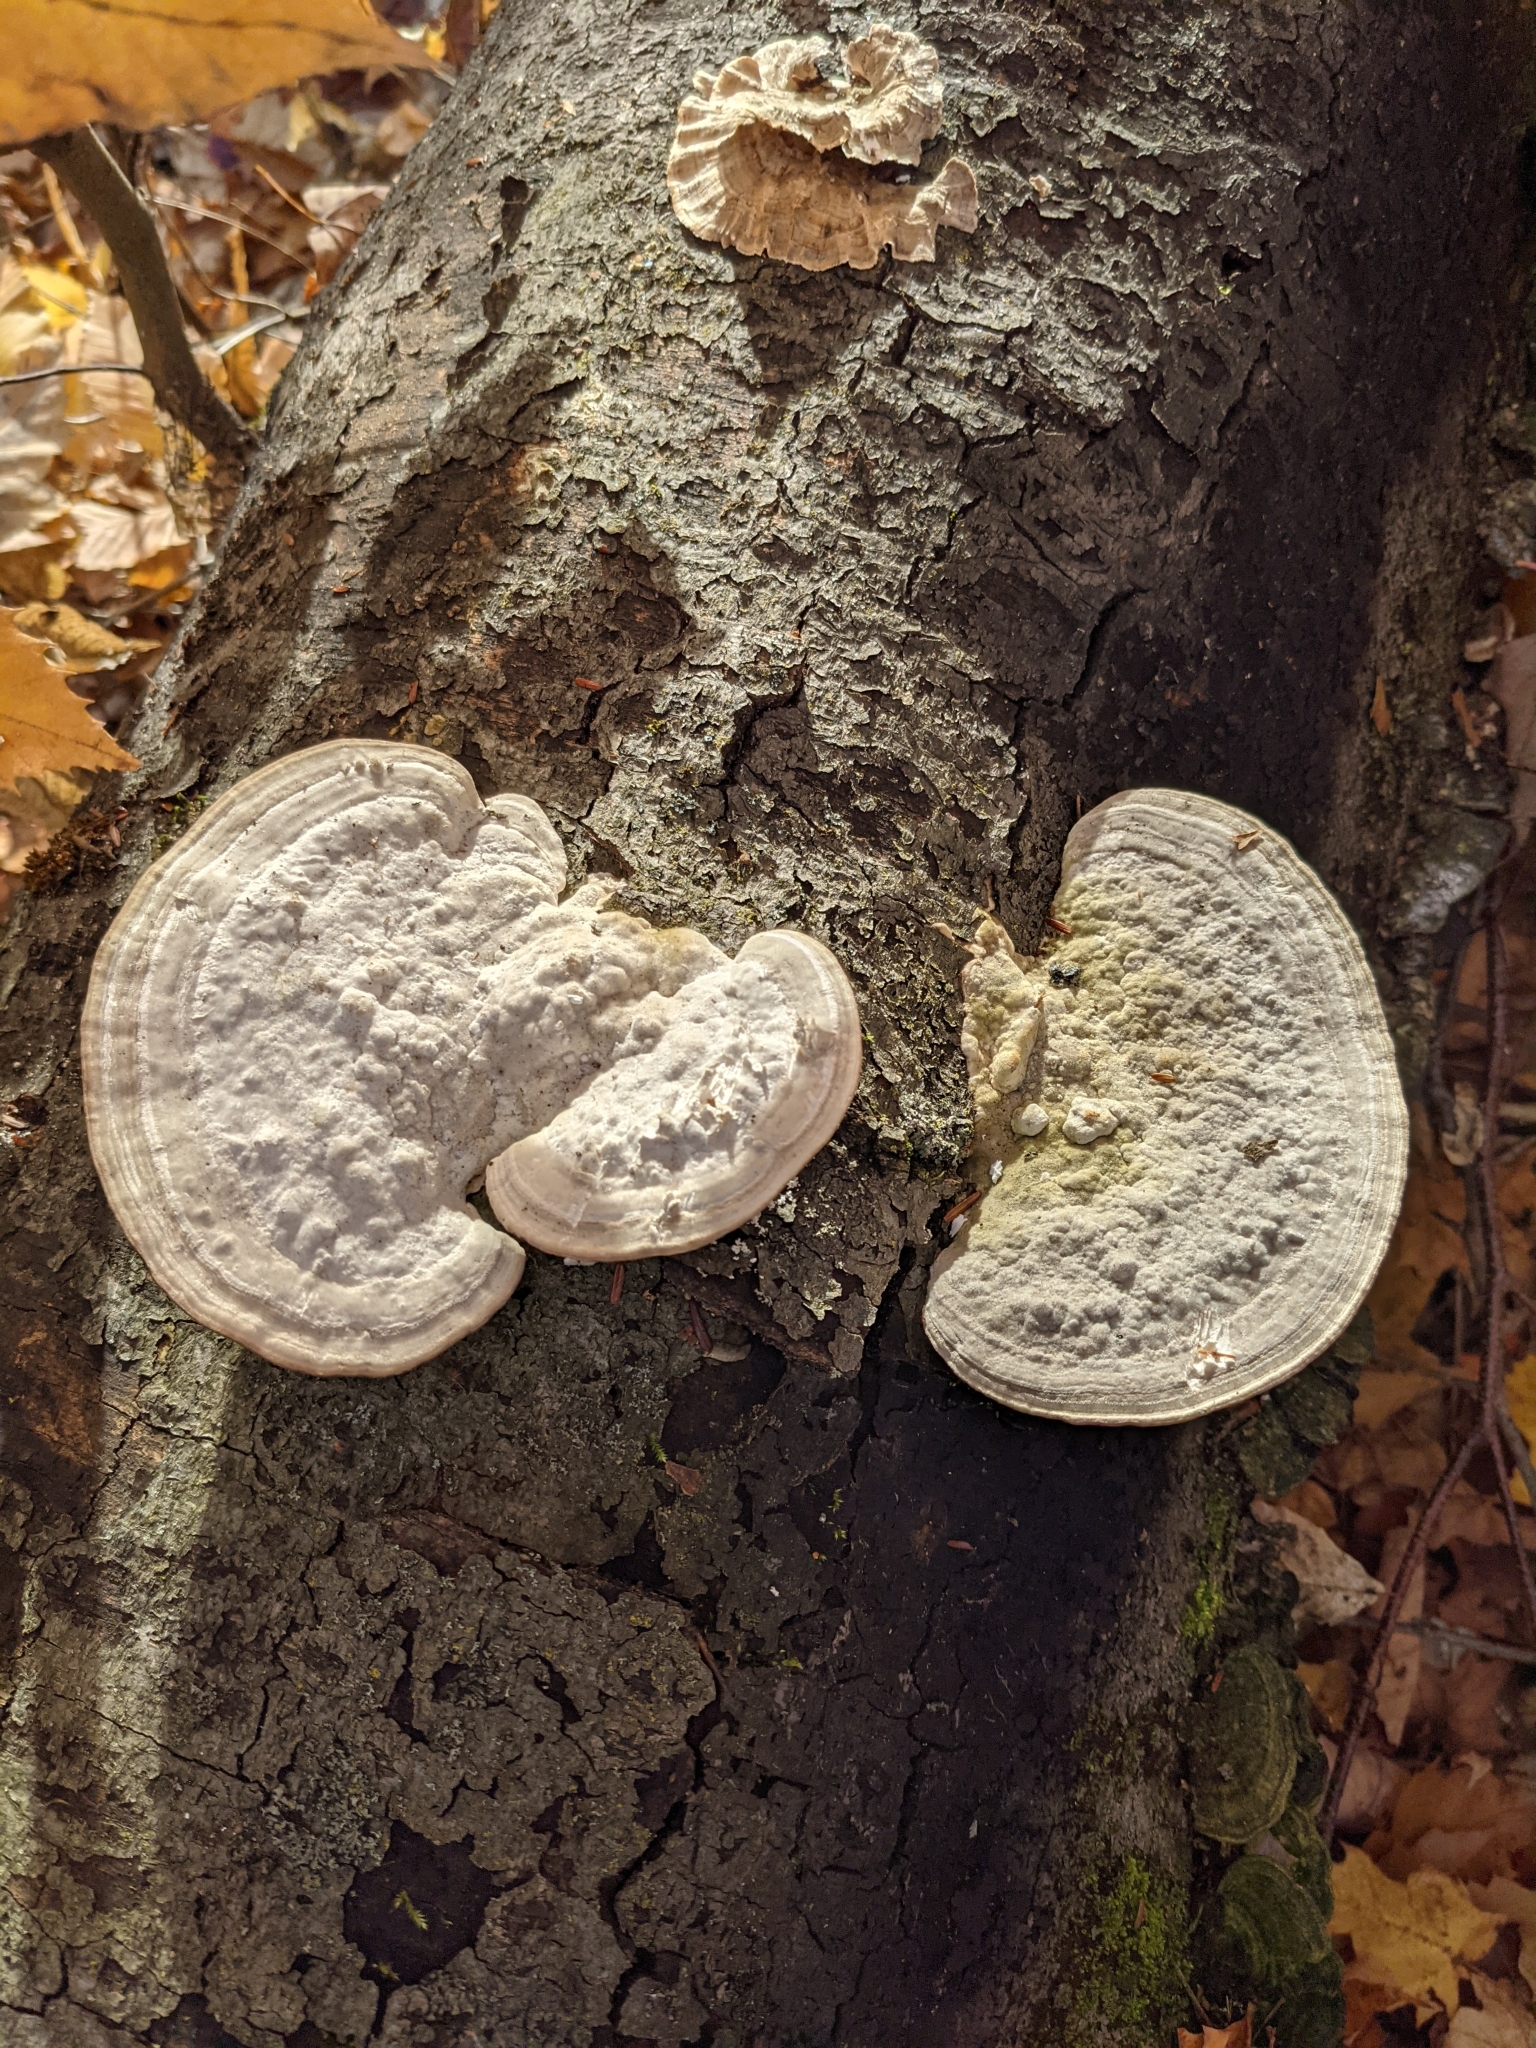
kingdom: Fungi
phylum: Basidiomycota
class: Agaricomycetes
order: Polyporales
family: Polyporaceae
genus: Trametes
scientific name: Trametes gibbosa
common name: Lumpy bracket
